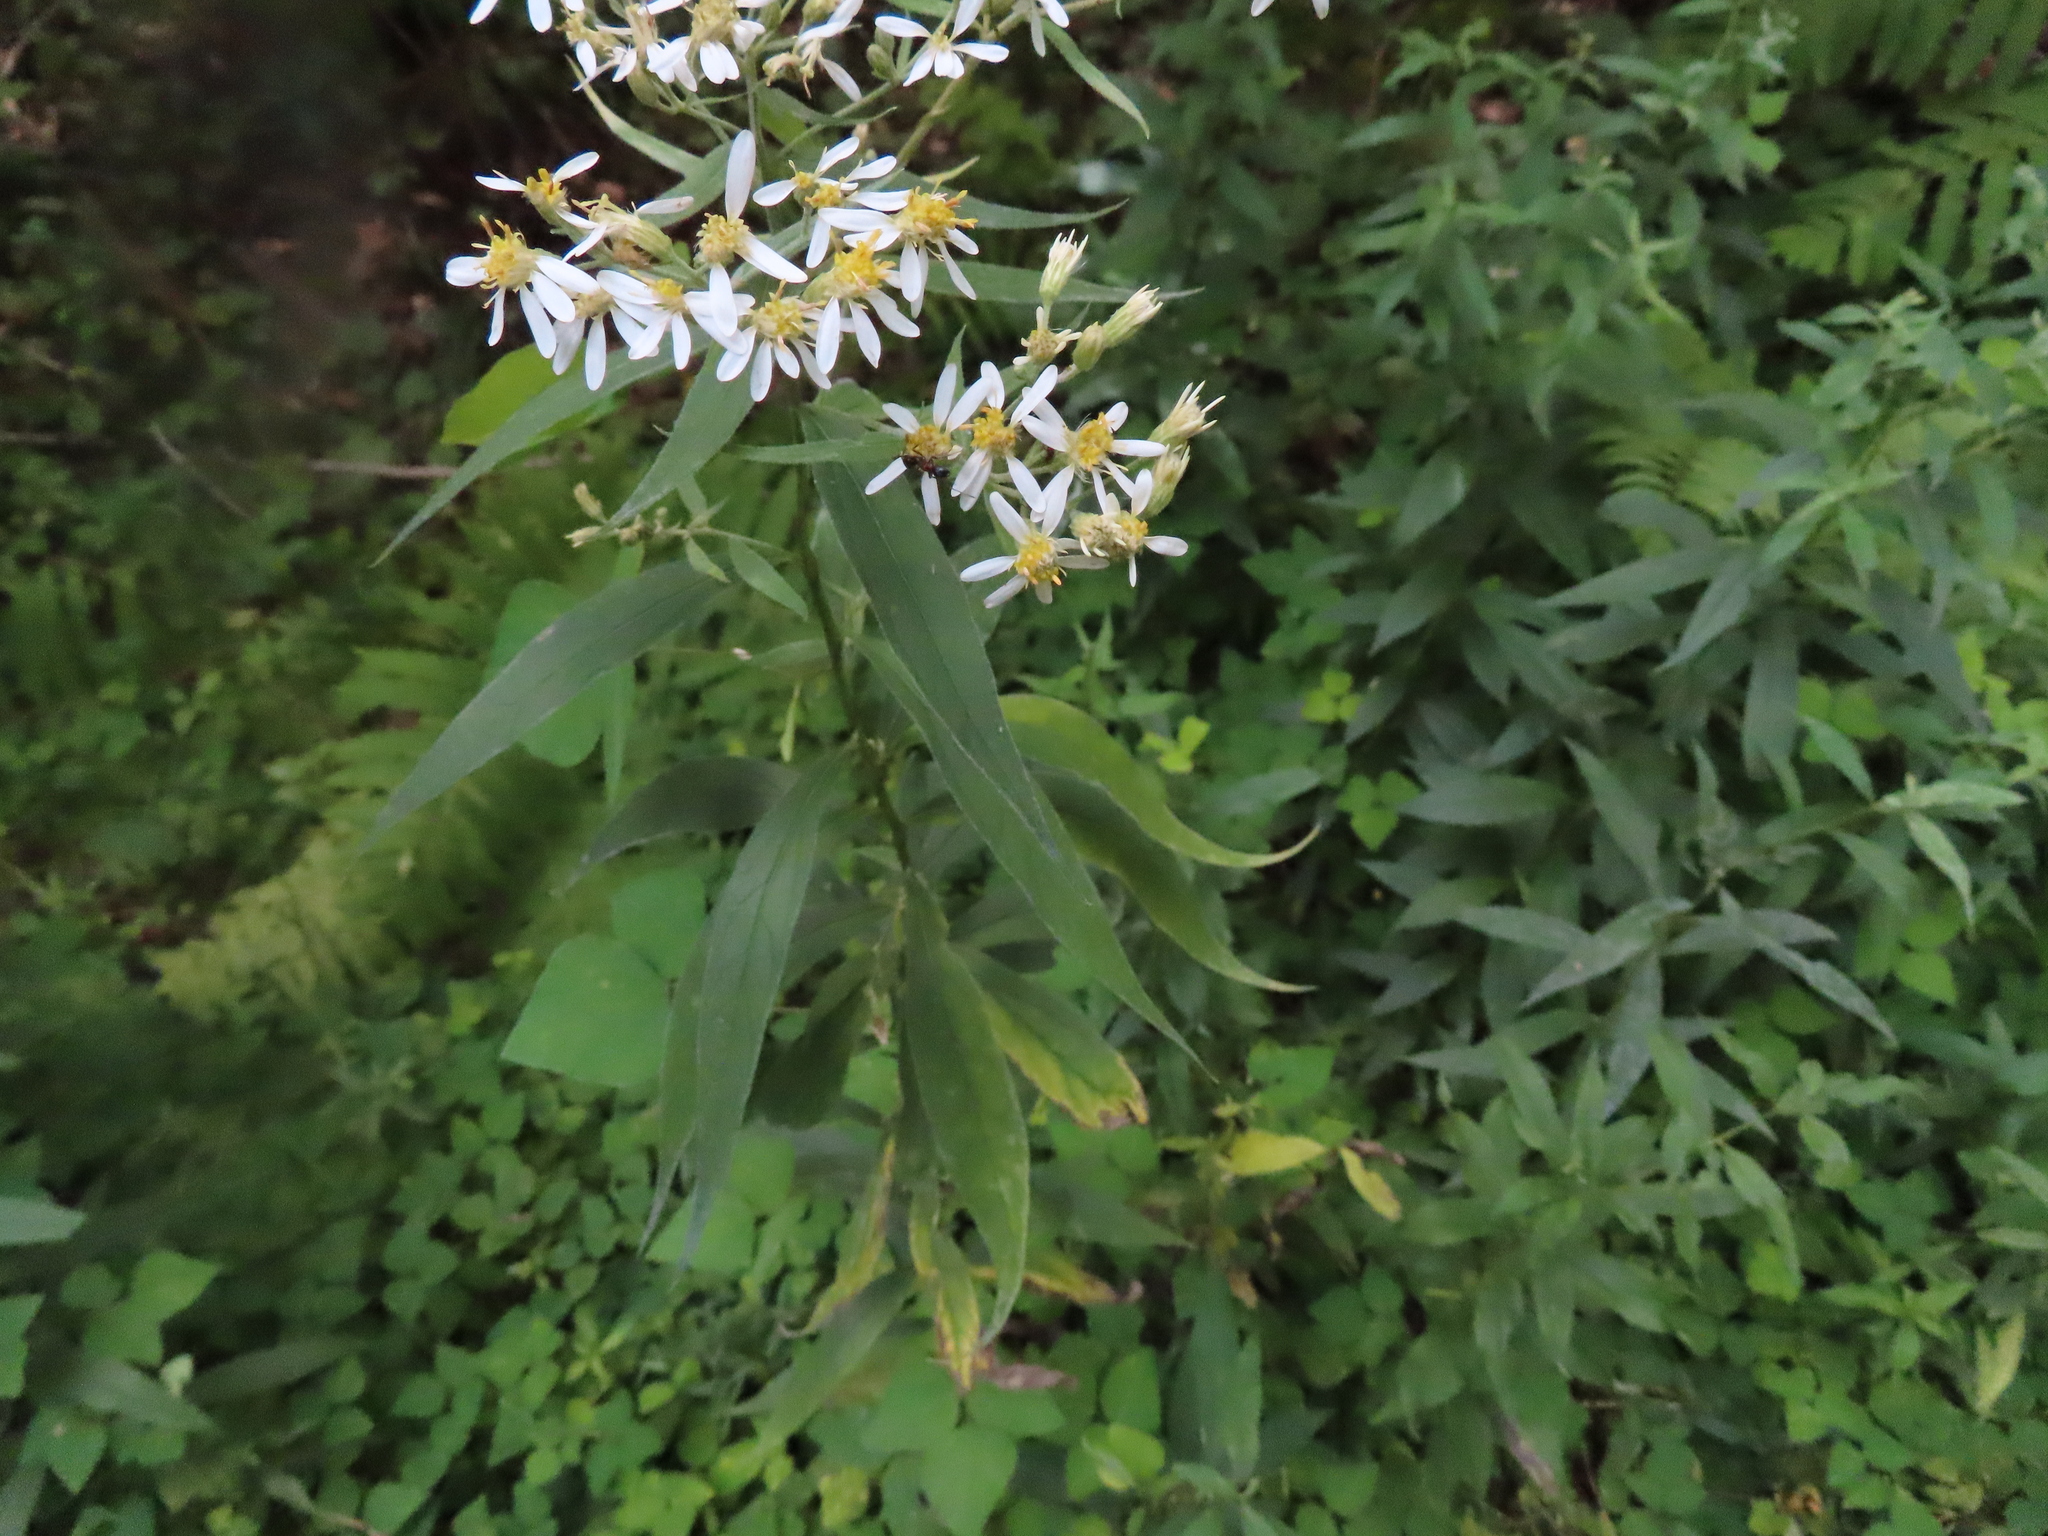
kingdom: Plantae
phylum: Tracheophyta
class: Magnoliopsida
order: Asterales
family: Asteraceae
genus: Doellingeria
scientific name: Doellingeria umbellata
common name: Flat-top white aster
